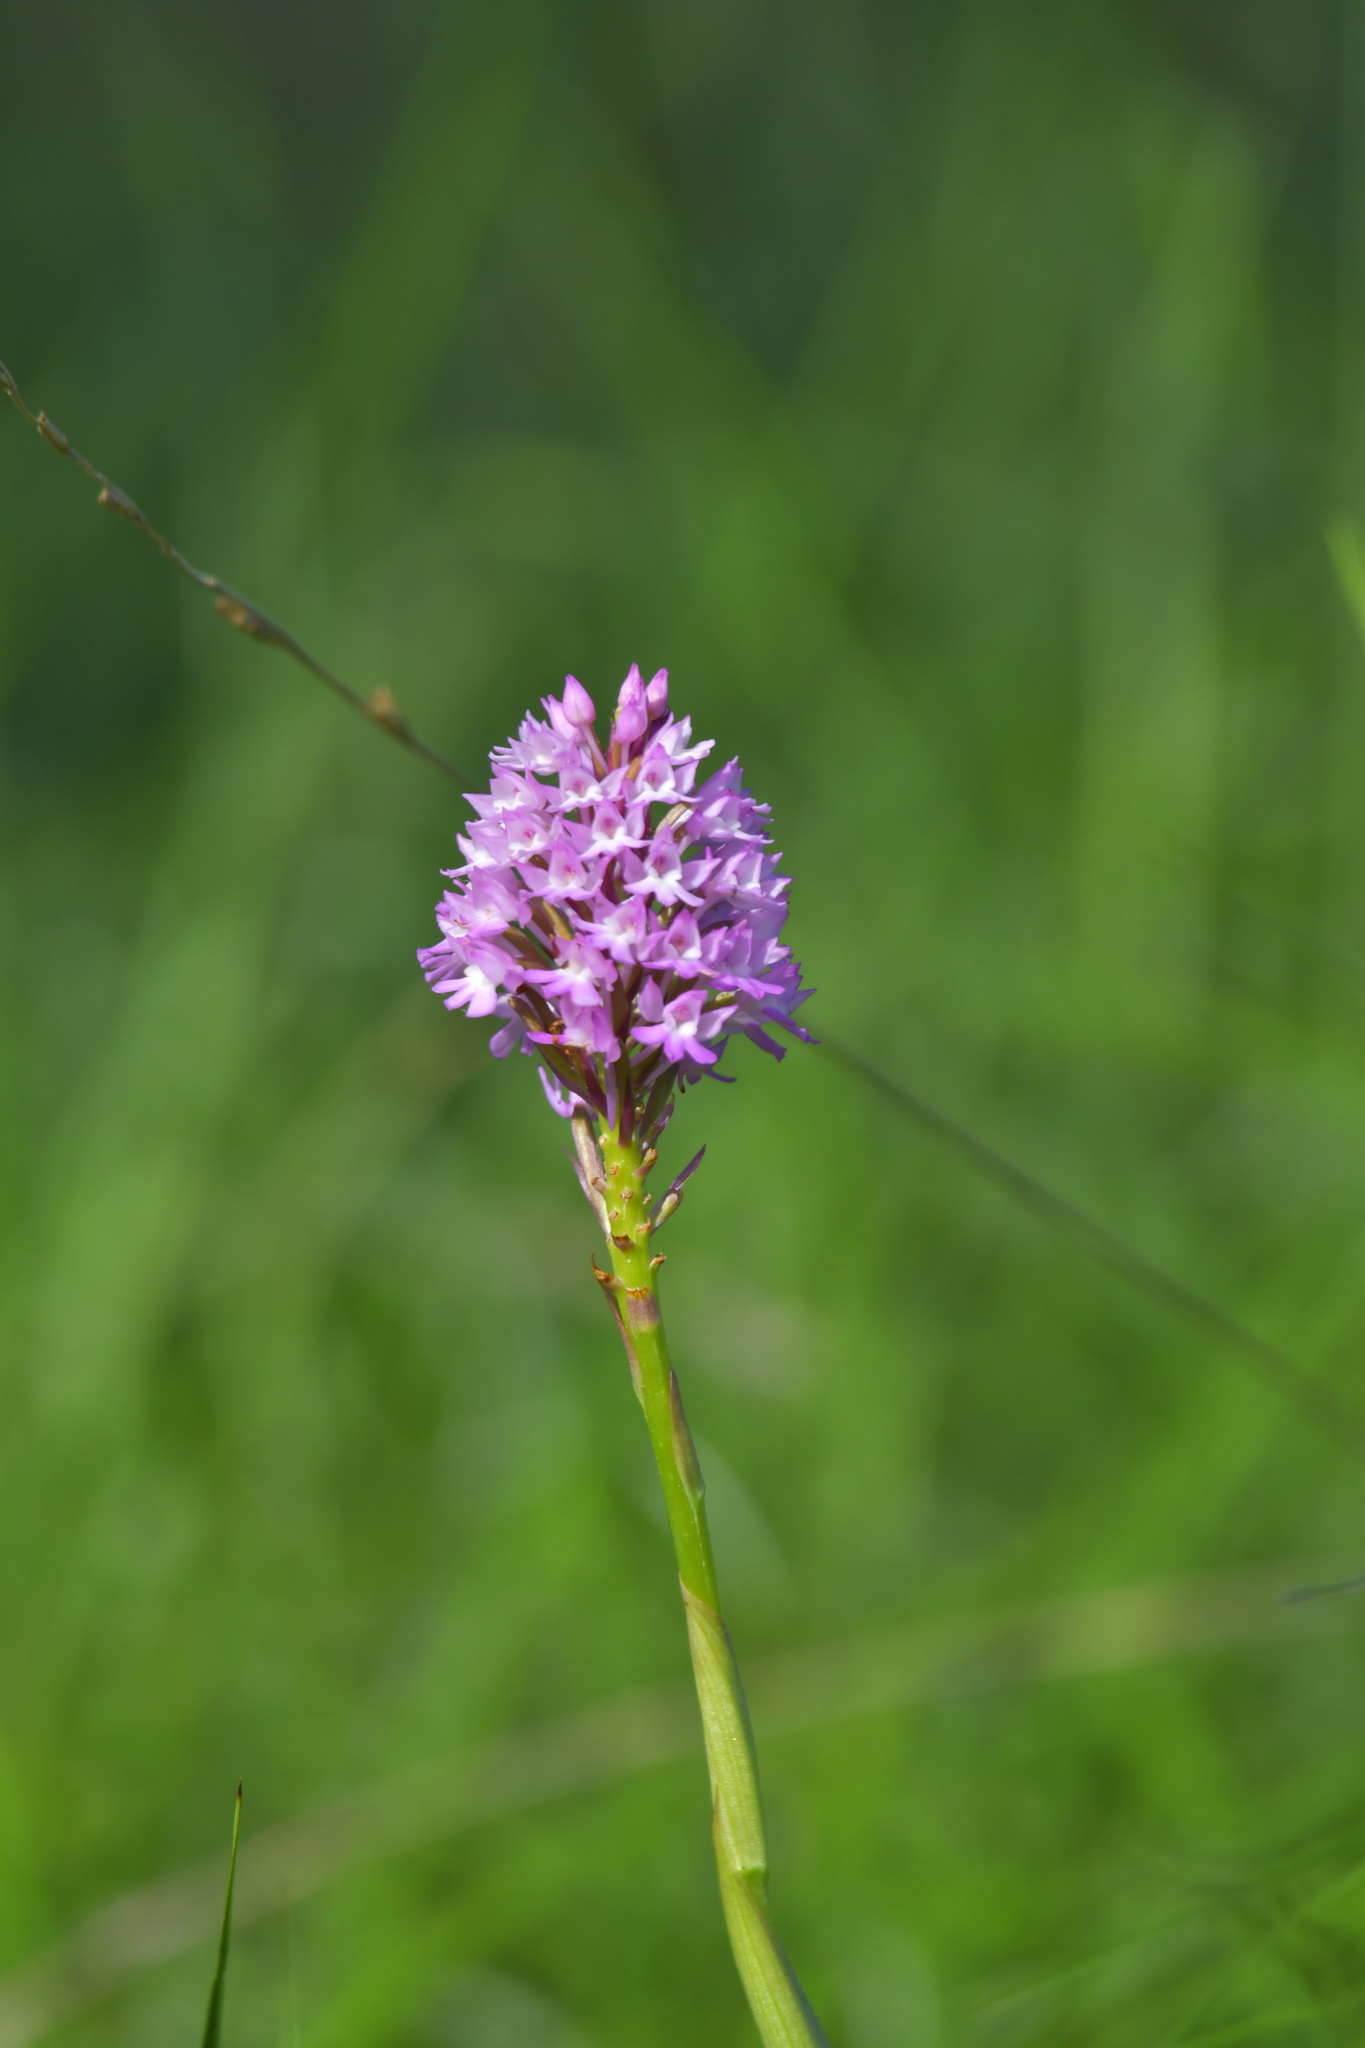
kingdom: Plantae
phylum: Tracheophyta
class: Liliopsida
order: Asparagales
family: Orchidaceae
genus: Anacamptis
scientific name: Anacamptis pyramidalis
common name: Pyramidal orchid
